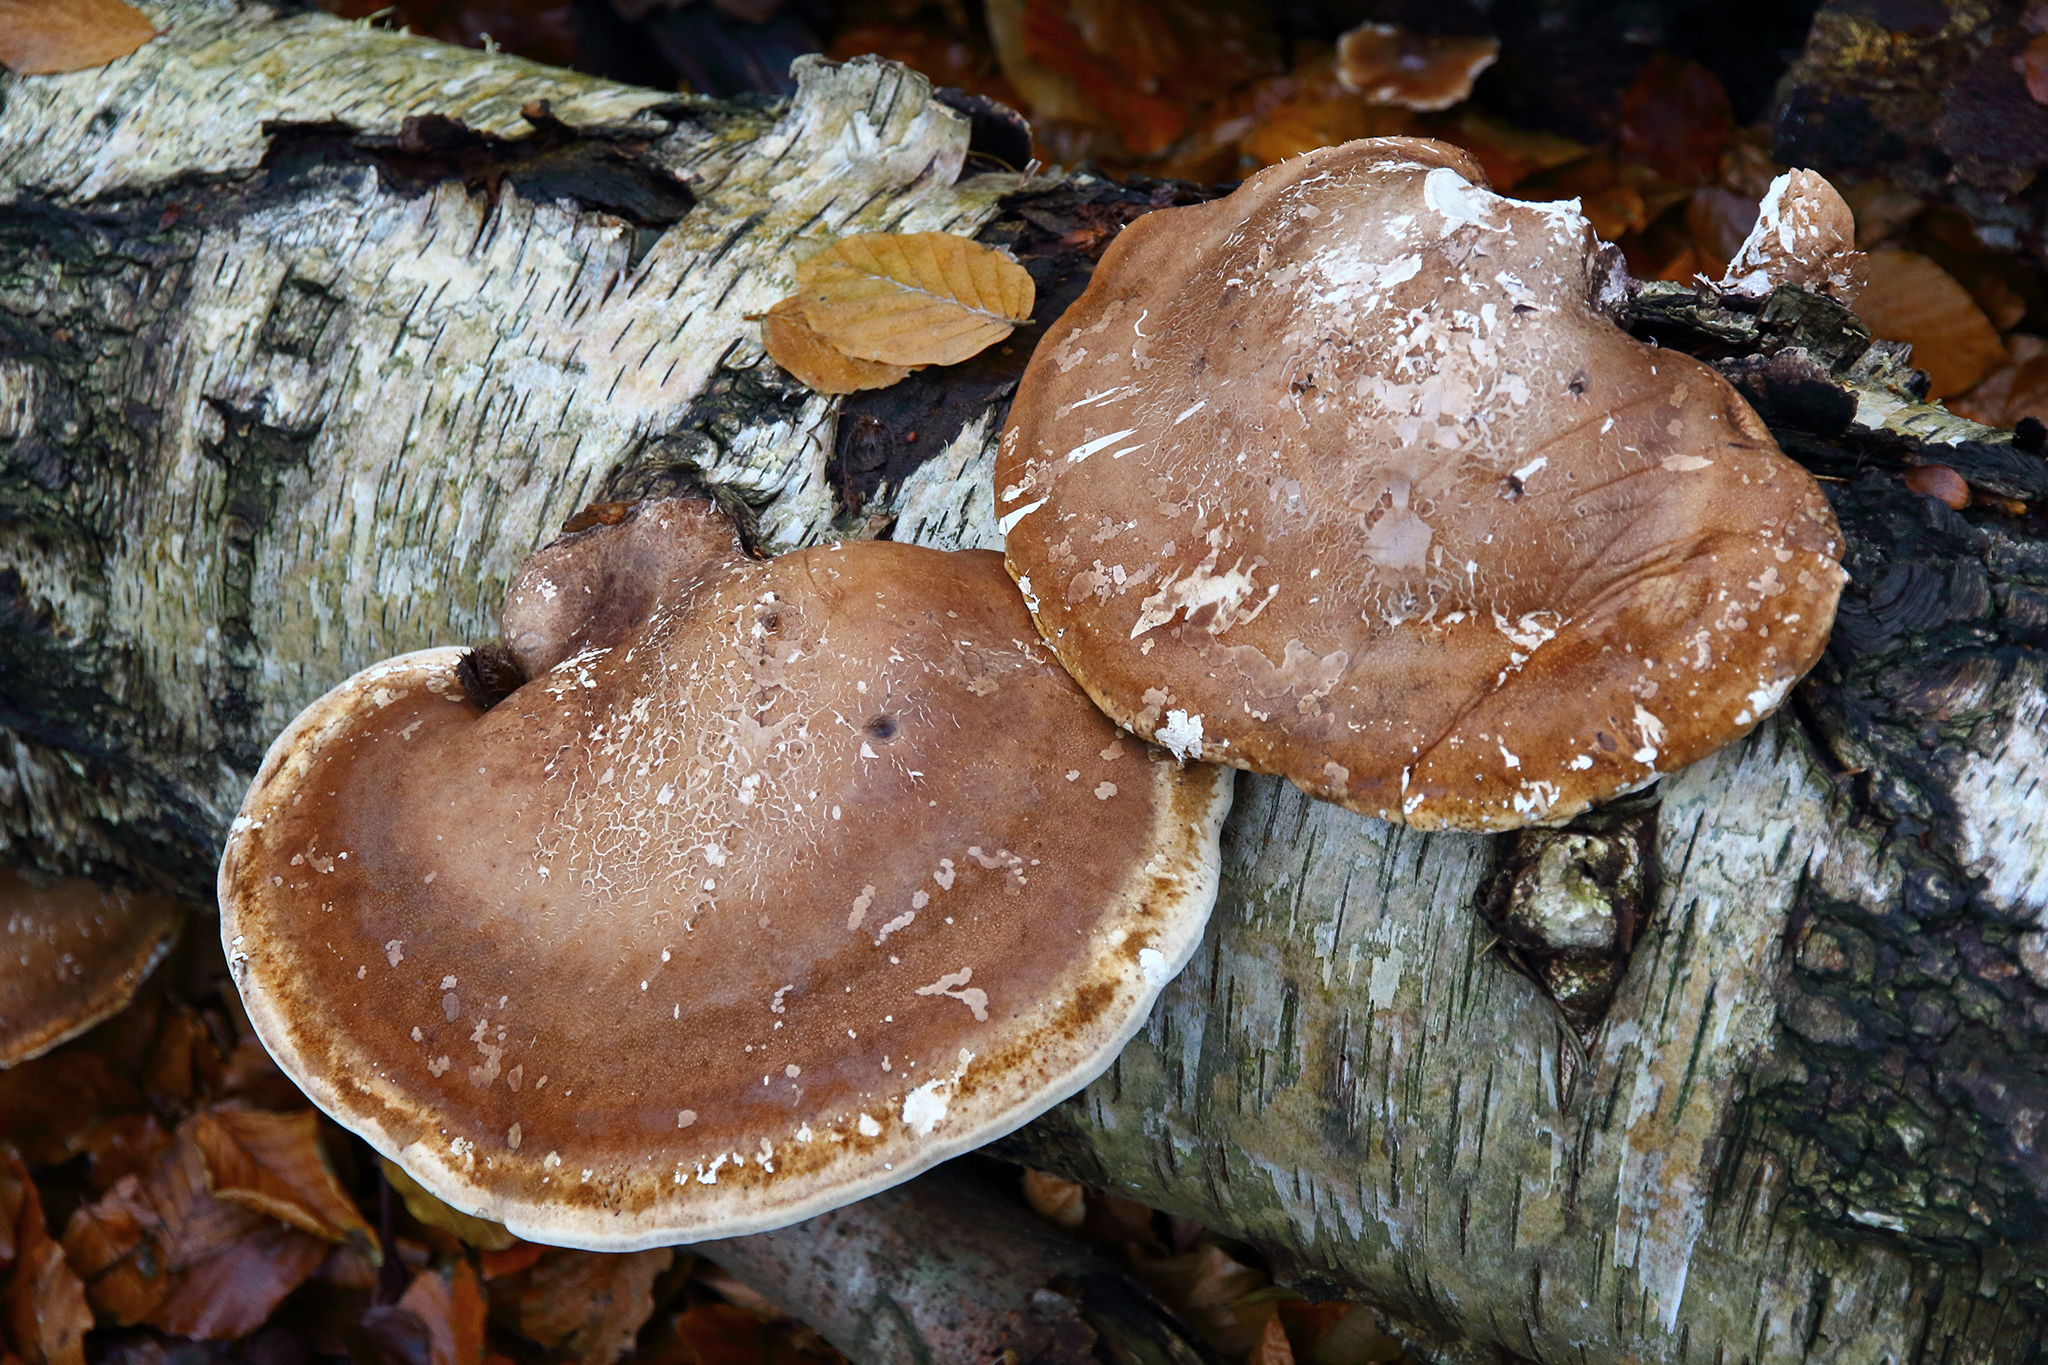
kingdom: Fungi
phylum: Basidiomycota
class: Agaricomycetes
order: Polyporales
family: Fomitopsidaceae
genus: Fomitopsis
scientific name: Fomitopsis betulina
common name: Birch polypore
